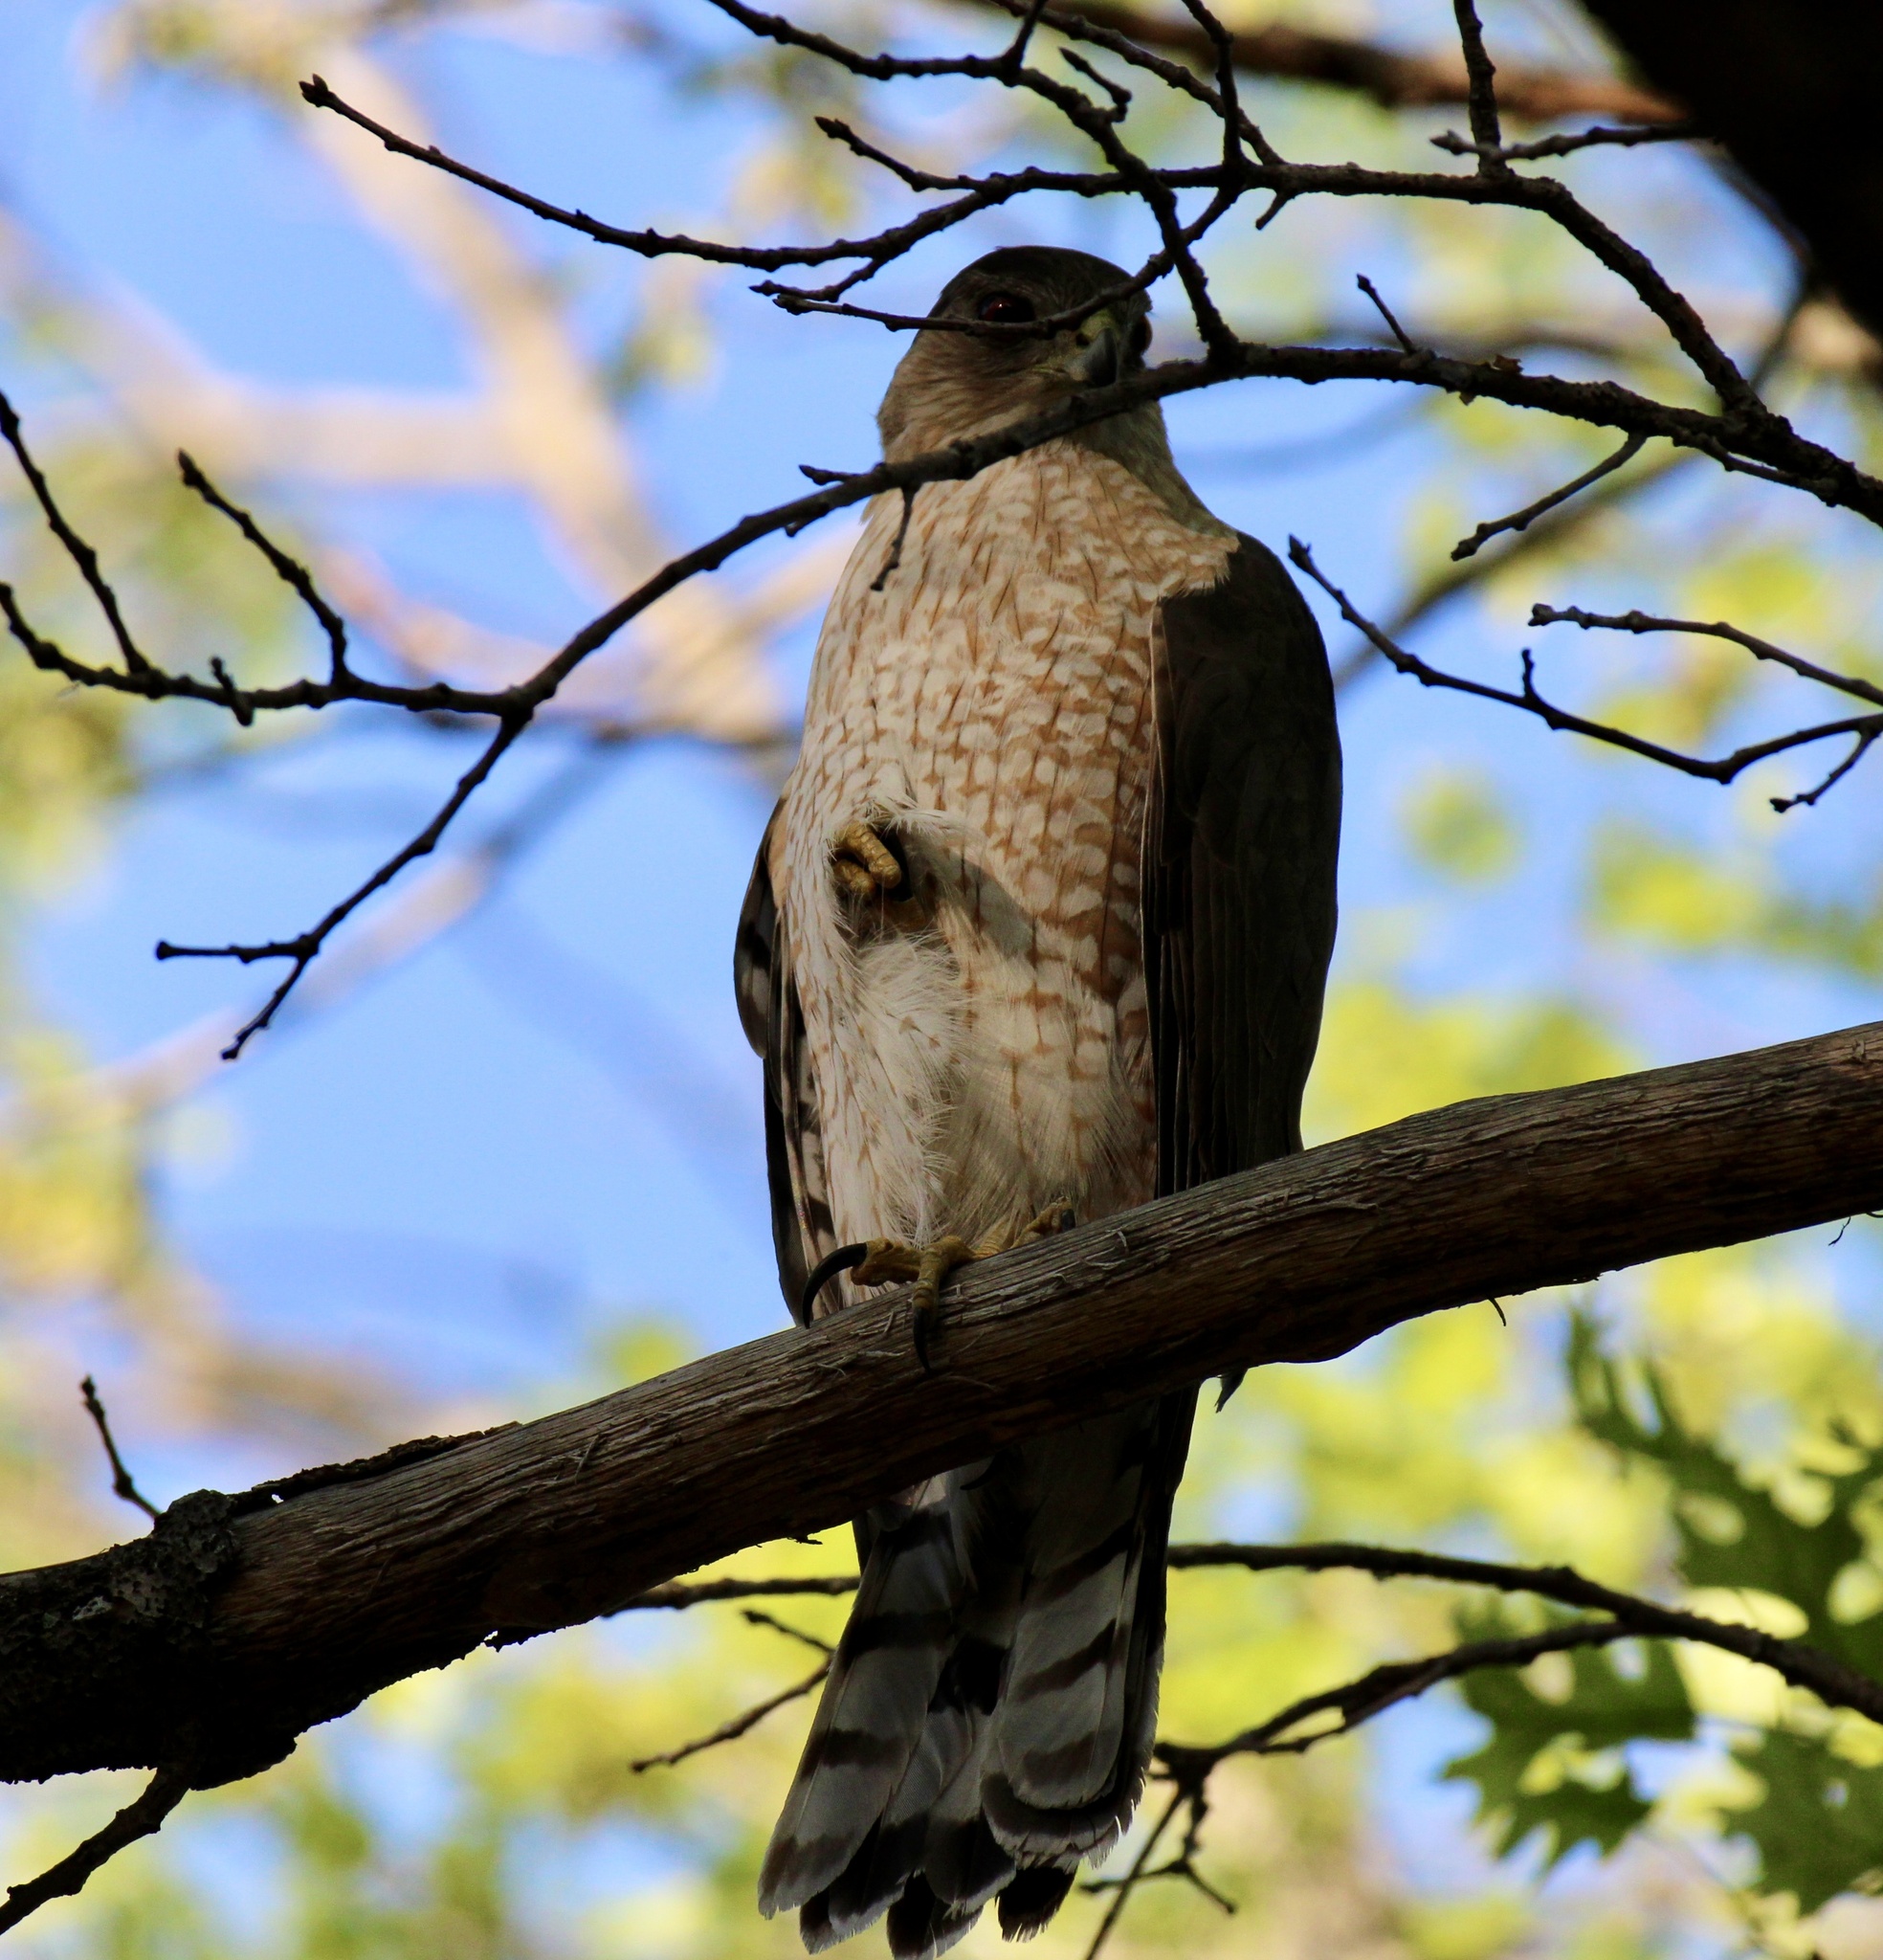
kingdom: Animalia
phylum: Chordata
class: Aves
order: Accipitriformes
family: Accipitridae
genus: Accipiter
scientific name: Accipiter cooperii
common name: Cooper's hawk
